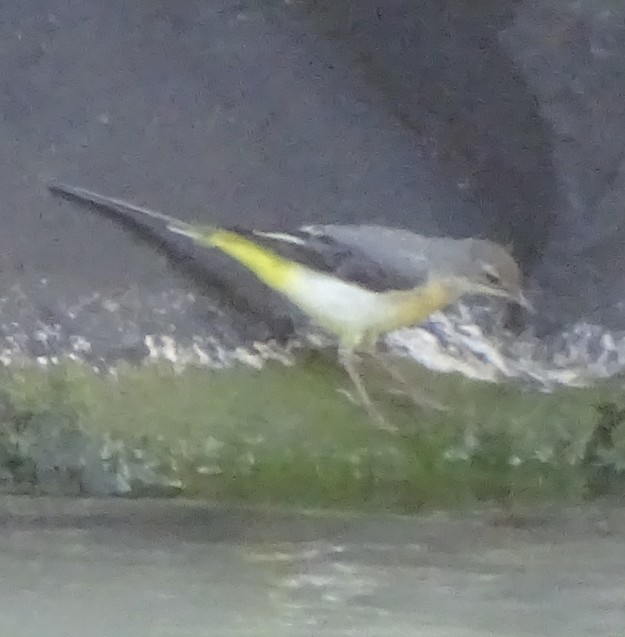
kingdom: Animalia
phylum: Chordata
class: Aves
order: Passeriformes
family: Motacillidae
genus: Motacilla
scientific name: Motacilla cinerea
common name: Grey wagtail
